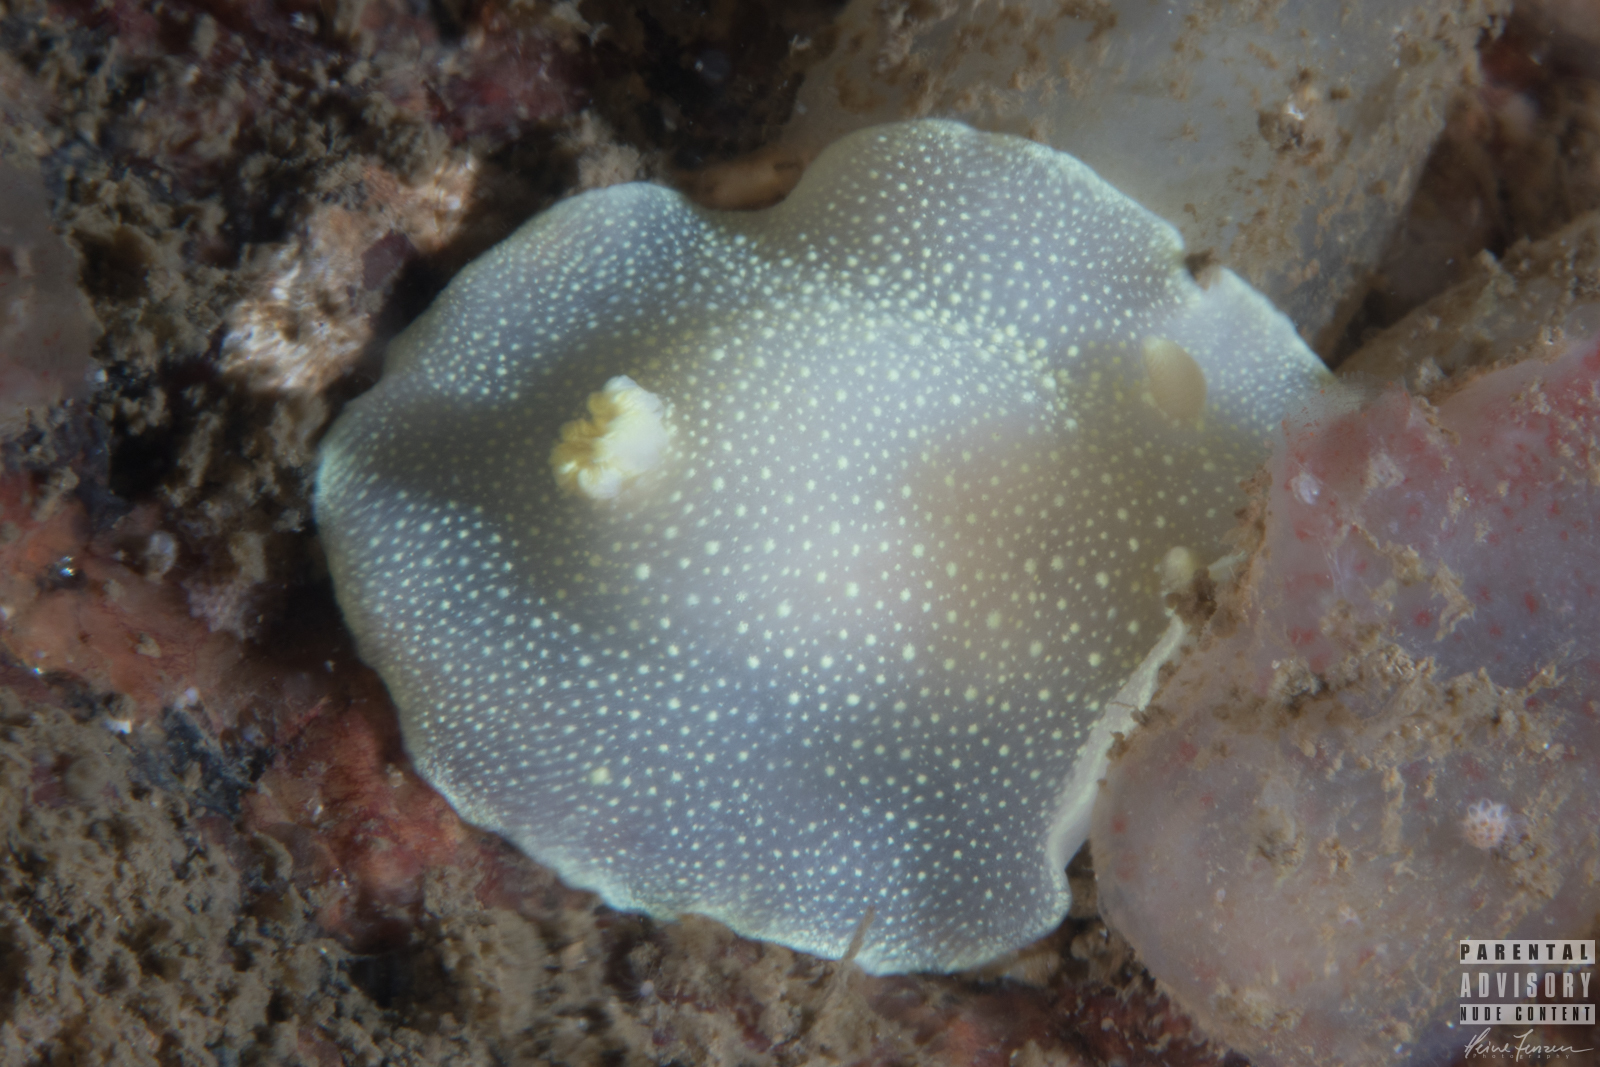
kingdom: Animalia
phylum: Mollusca
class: Gastropoda
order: Nudibranchia
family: Cadlinidae
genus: Cadlina
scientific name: Cadlina laevis
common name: White atlantic cadlina
